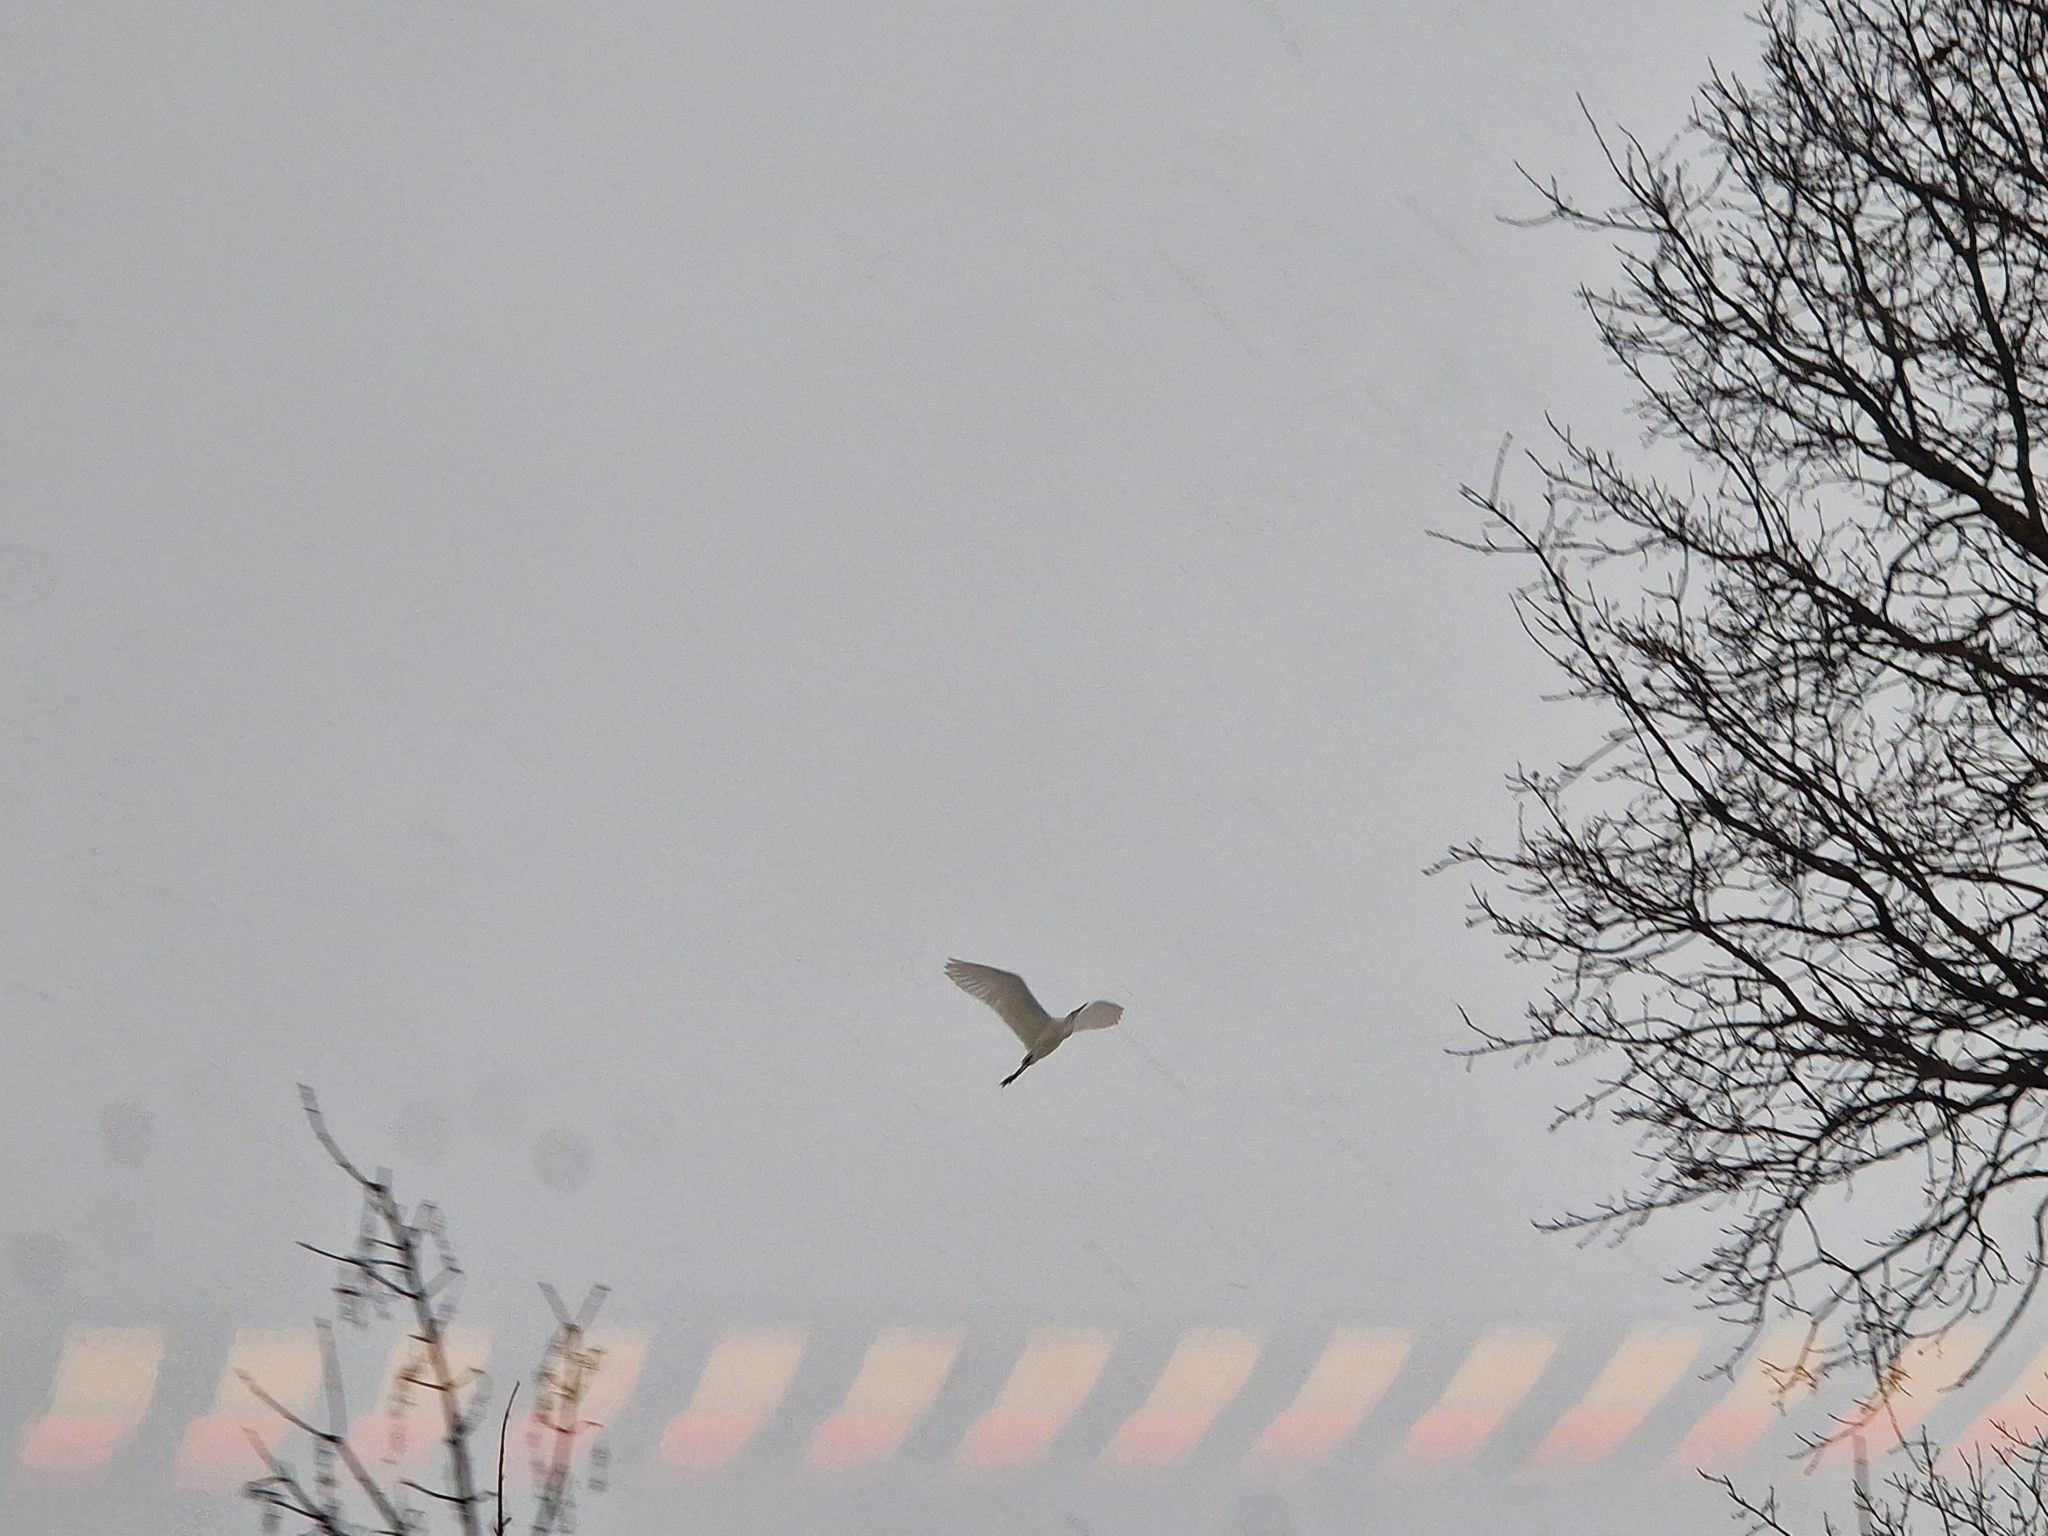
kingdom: Animalia
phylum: Chordata
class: Aves
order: Pelecaniformes
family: Ardeidae
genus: Ardea
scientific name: Ardea alba
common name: Great egret
